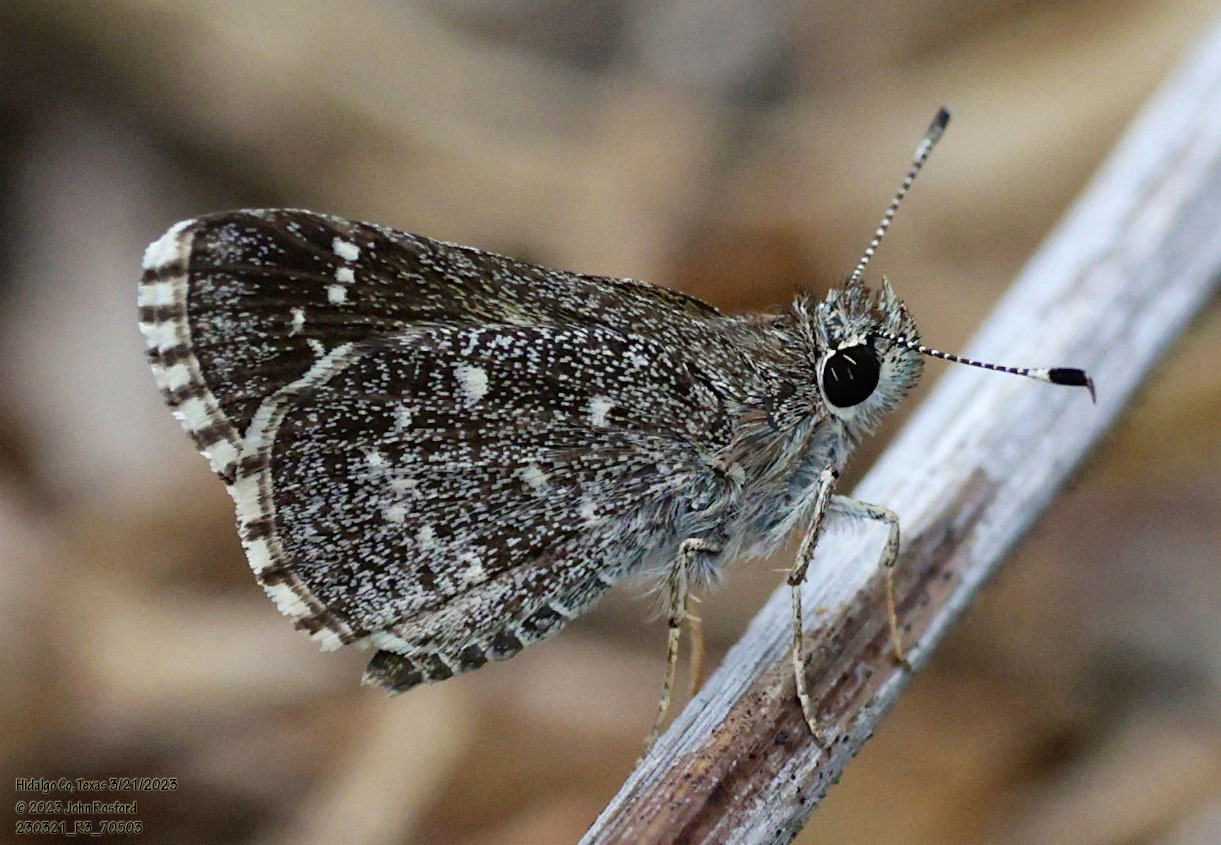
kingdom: Animalia
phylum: Arthropoda
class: Insecta
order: Lepidoptera
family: Hesperiidae
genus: Mastor
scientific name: Mastor celia
